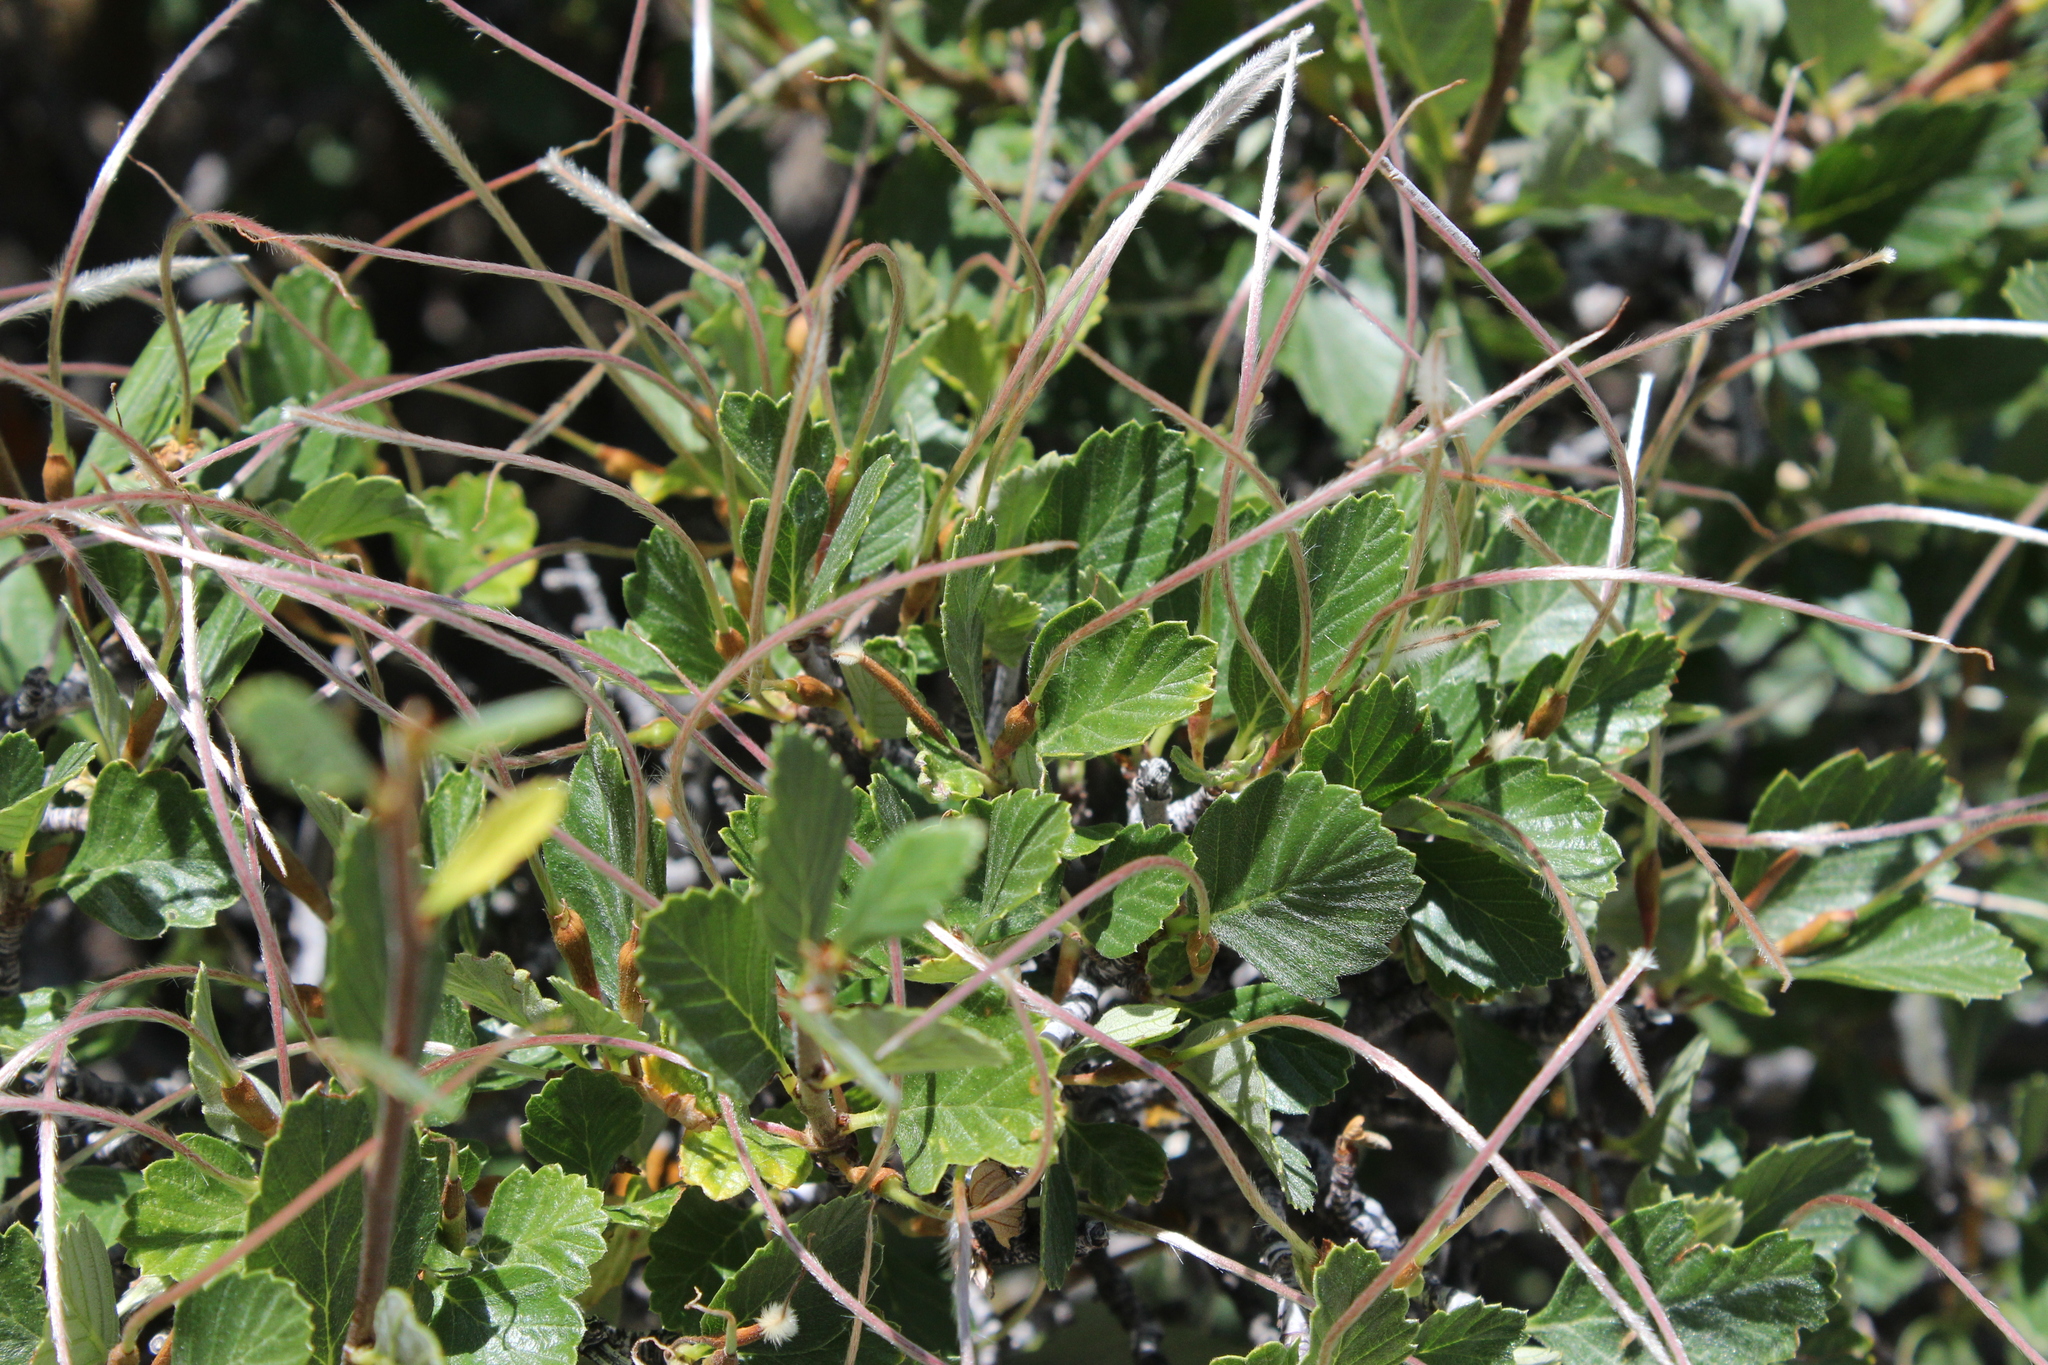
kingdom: Plantae
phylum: Tracheophyta
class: Magnoliopsida
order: Rosales
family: Rosaceae
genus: Cercocarpus
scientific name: Cercocarpus montanus
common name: Alder-leaf cercocarpus
